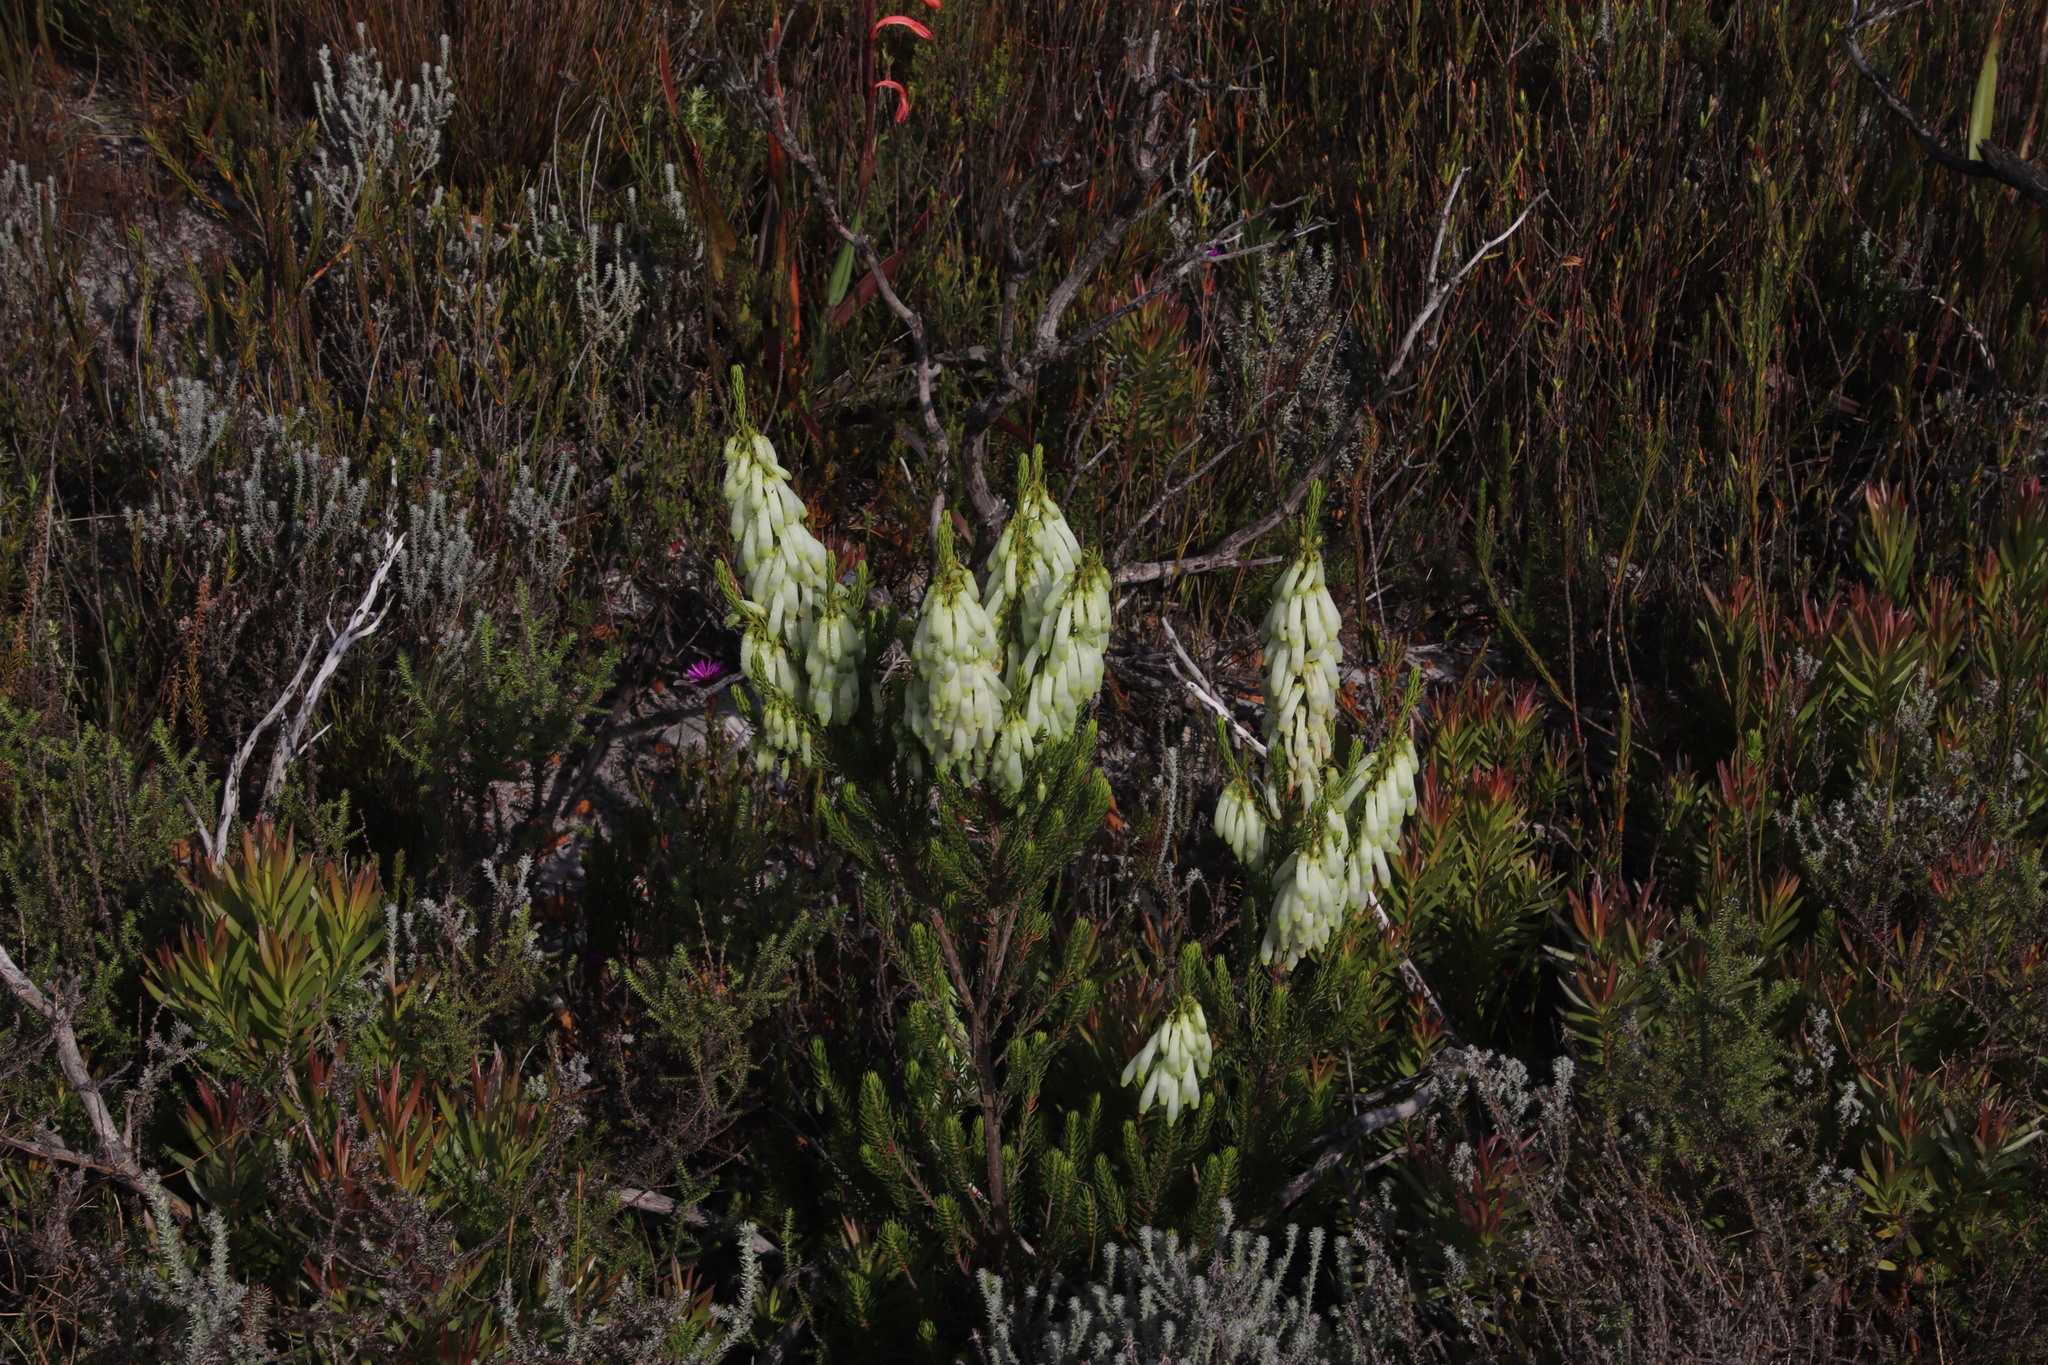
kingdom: Plantae
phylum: Tracheophyta
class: Magnoliopsida
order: Ericales
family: Ericaceae
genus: Erica
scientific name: Erica mammosa
